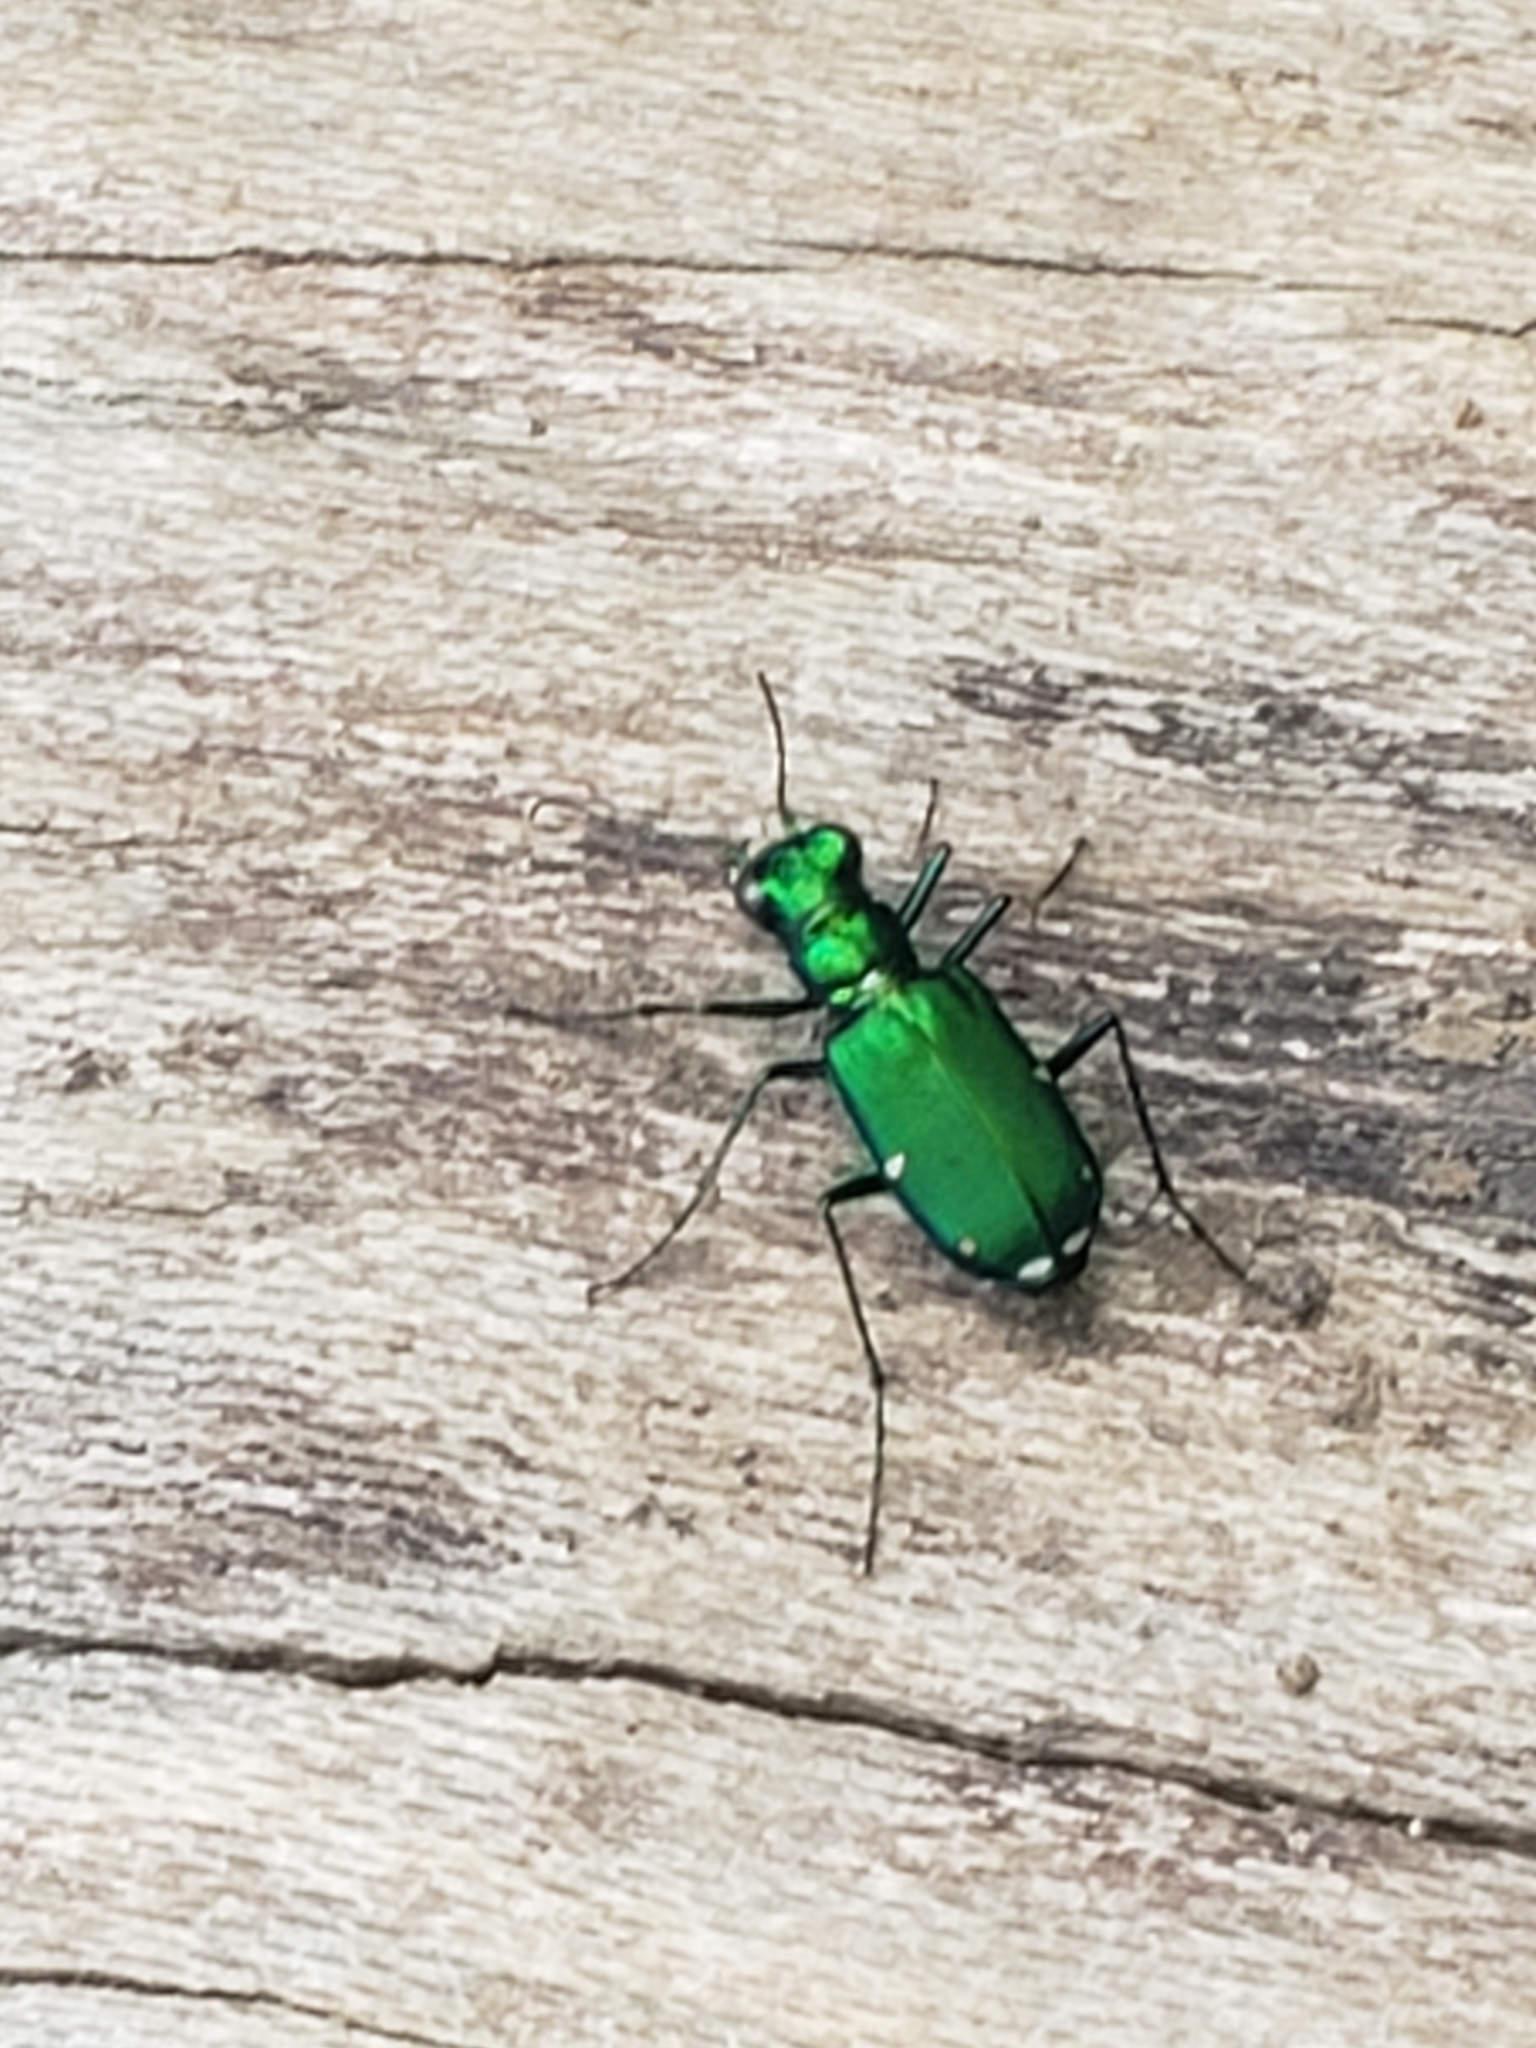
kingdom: Animalia
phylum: Arthropoda
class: Insecta
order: Coleoptera
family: Carabidae
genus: Cicindela
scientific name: Cicindela sexguttata
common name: Six-spotted tiger beetle
